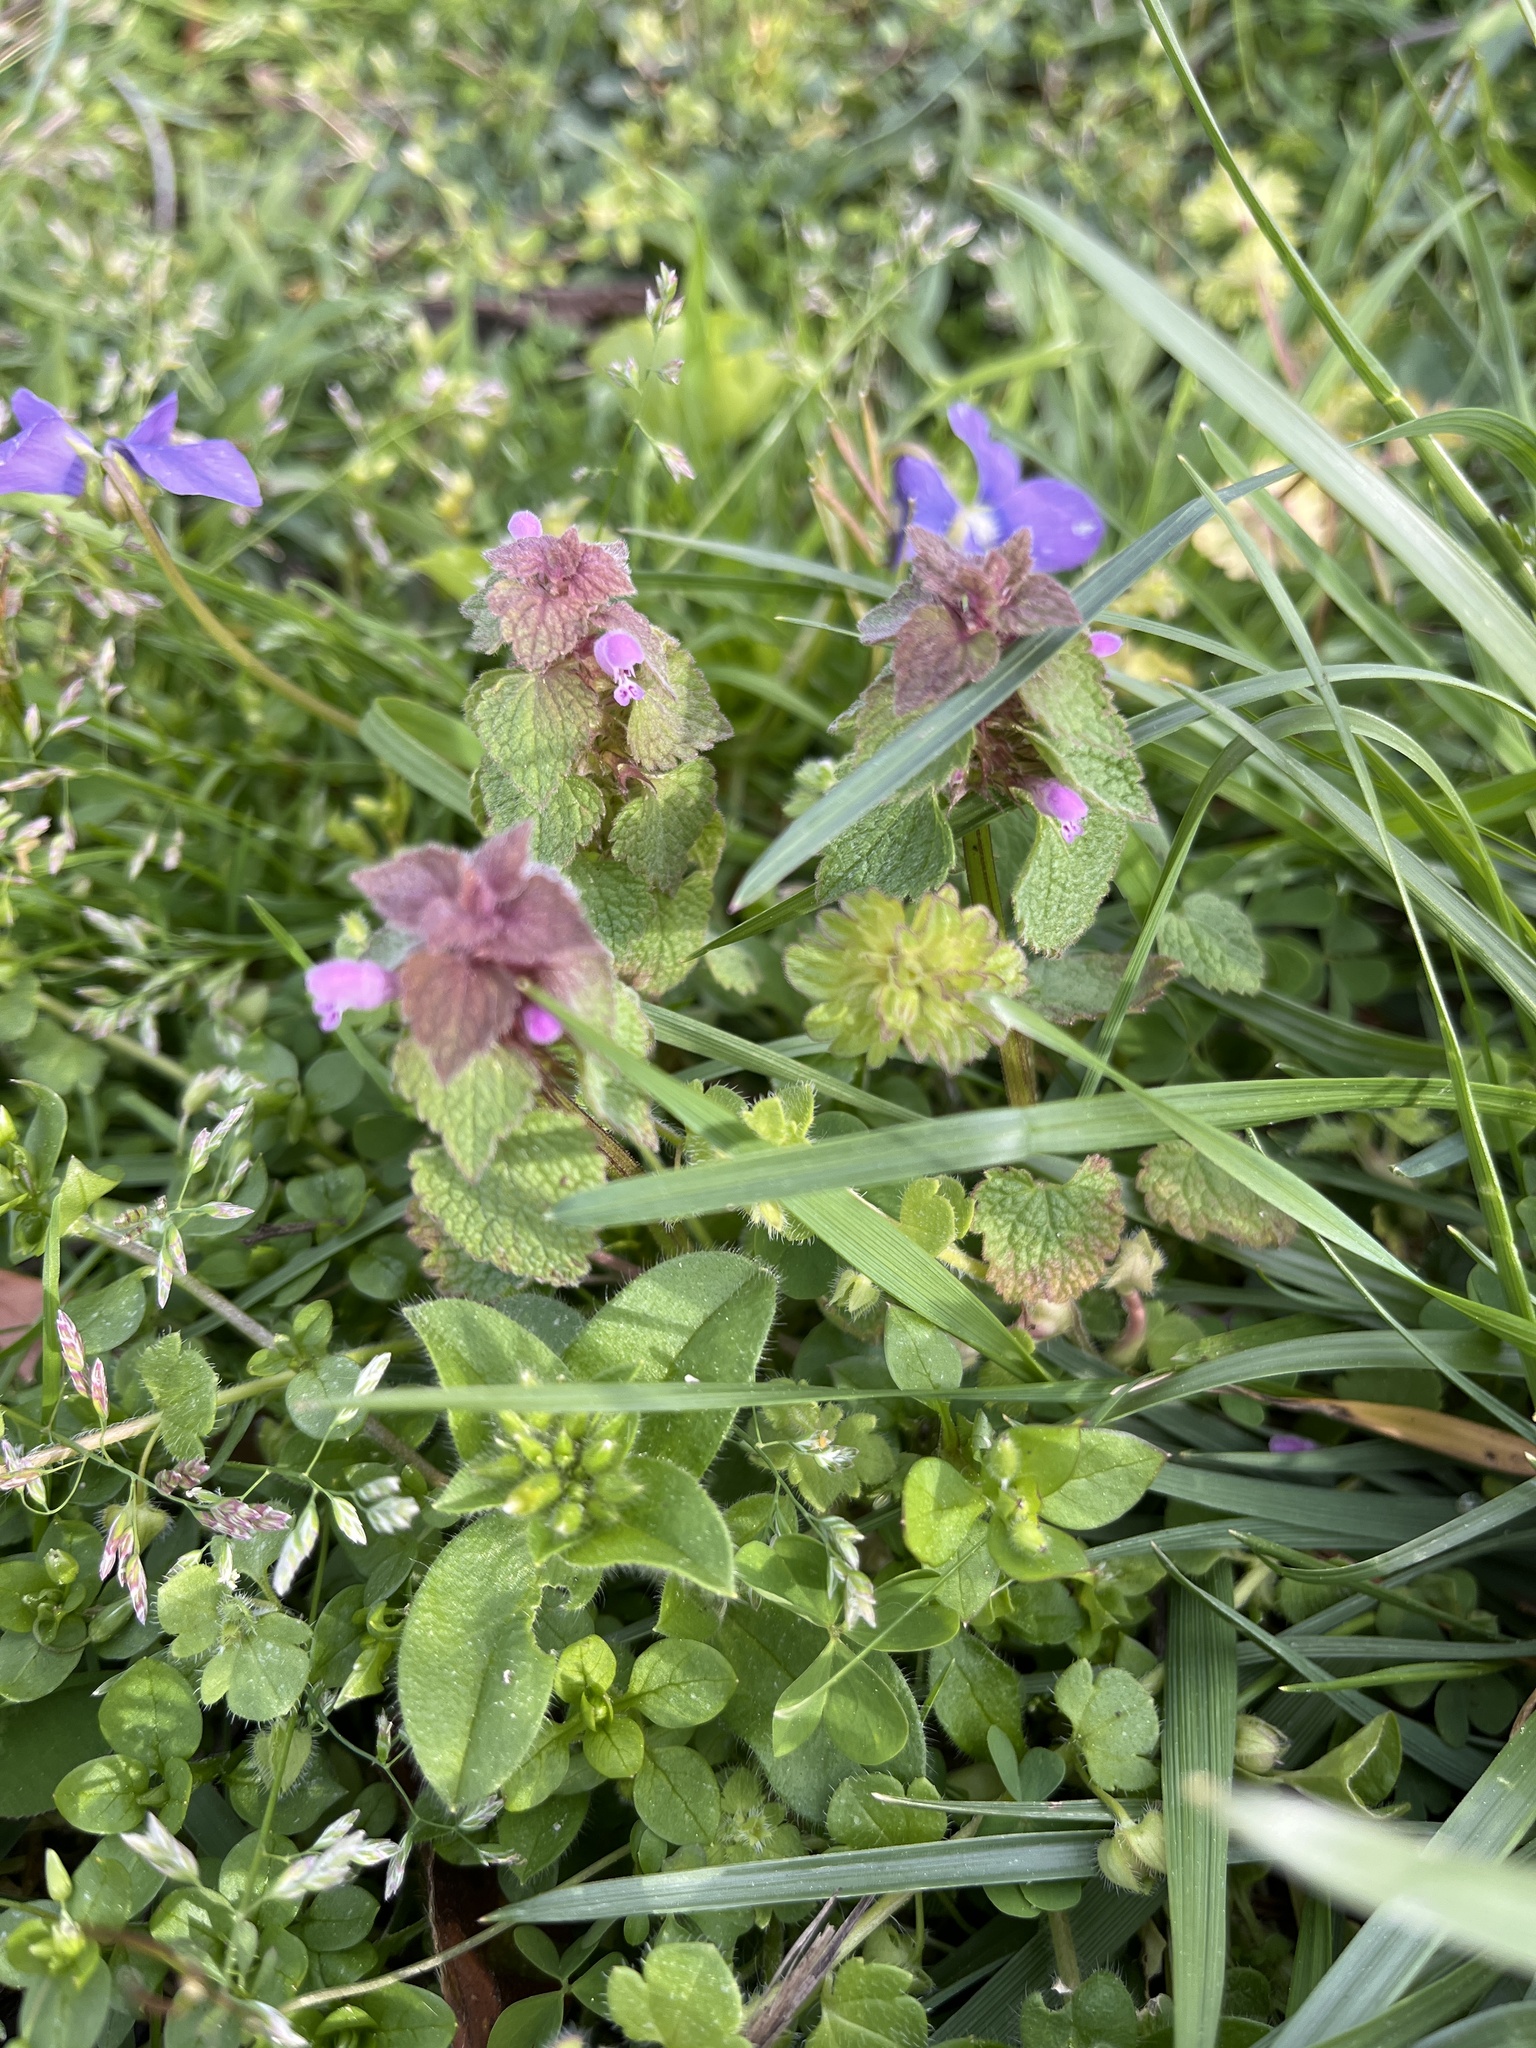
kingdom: Plantae
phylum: Tracheophyta
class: Magnoliopsida
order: Lamiales
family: Lamiaceae
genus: Lamium
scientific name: Lamium purpureum
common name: Red dead-nettle
